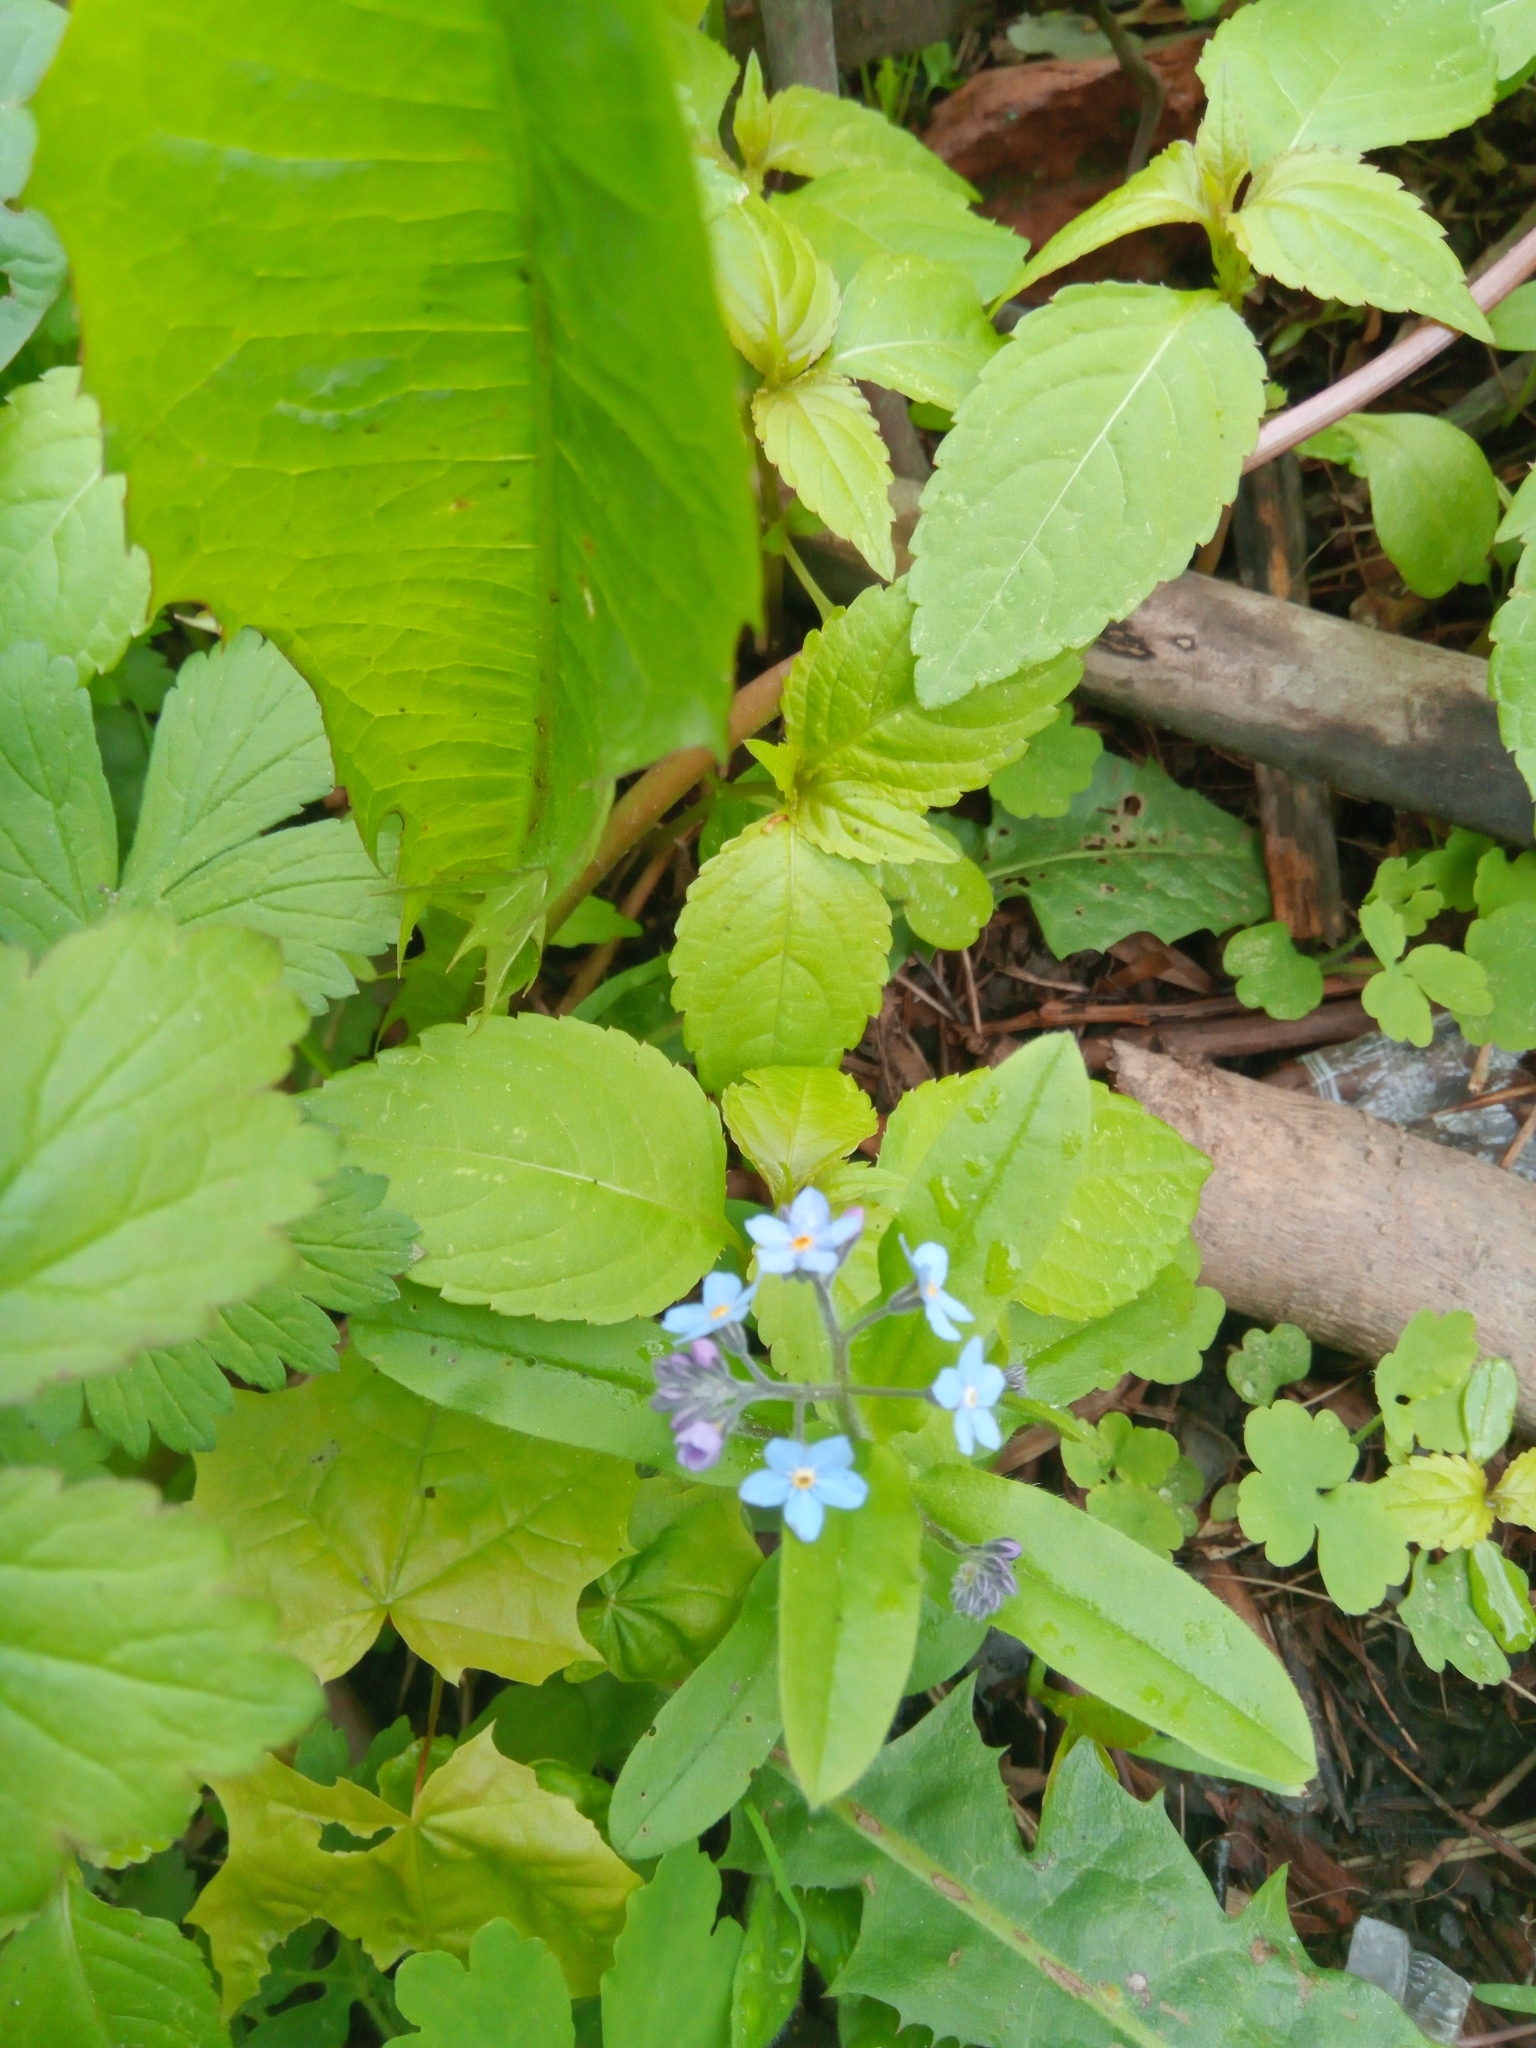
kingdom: Plantae
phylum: Tracheophyta
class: Magnoliopsida
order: Boraginales
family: Boraginaceae
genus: Myosotis
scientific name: Myosotis sylvatica
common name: Wood forget-me-not
